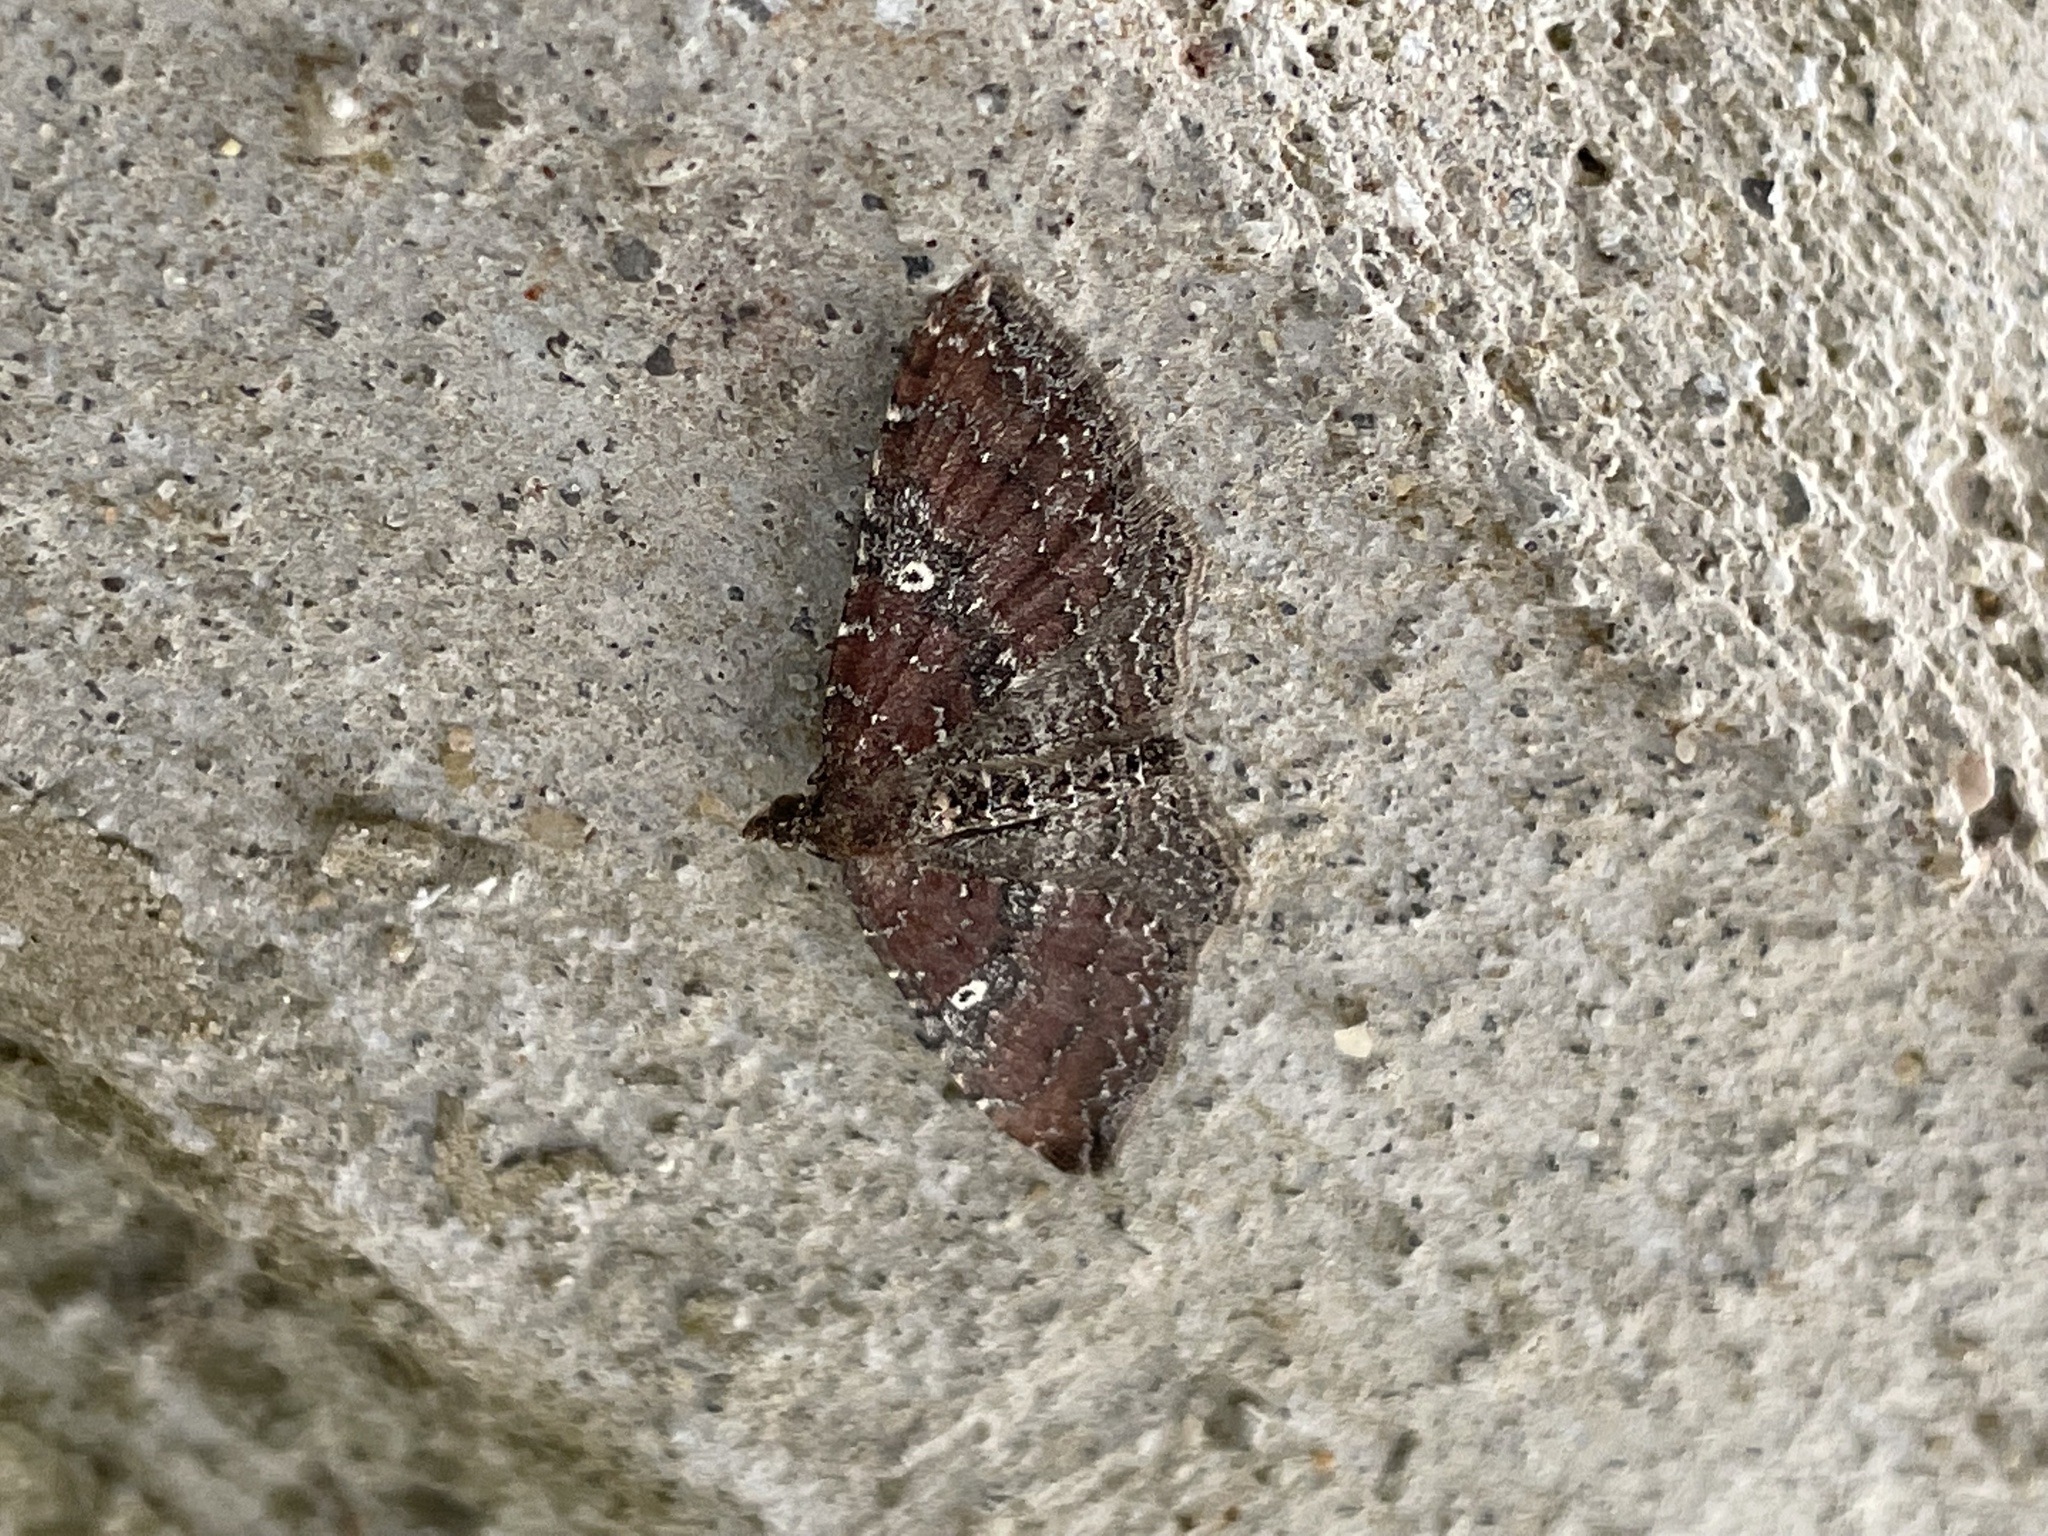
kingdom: Animalia
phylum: Arthropoda
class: Insecta
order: Lepidoptera
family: Geometridae
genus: Orthonama
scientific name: Orthonama obstipata
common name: The gem
